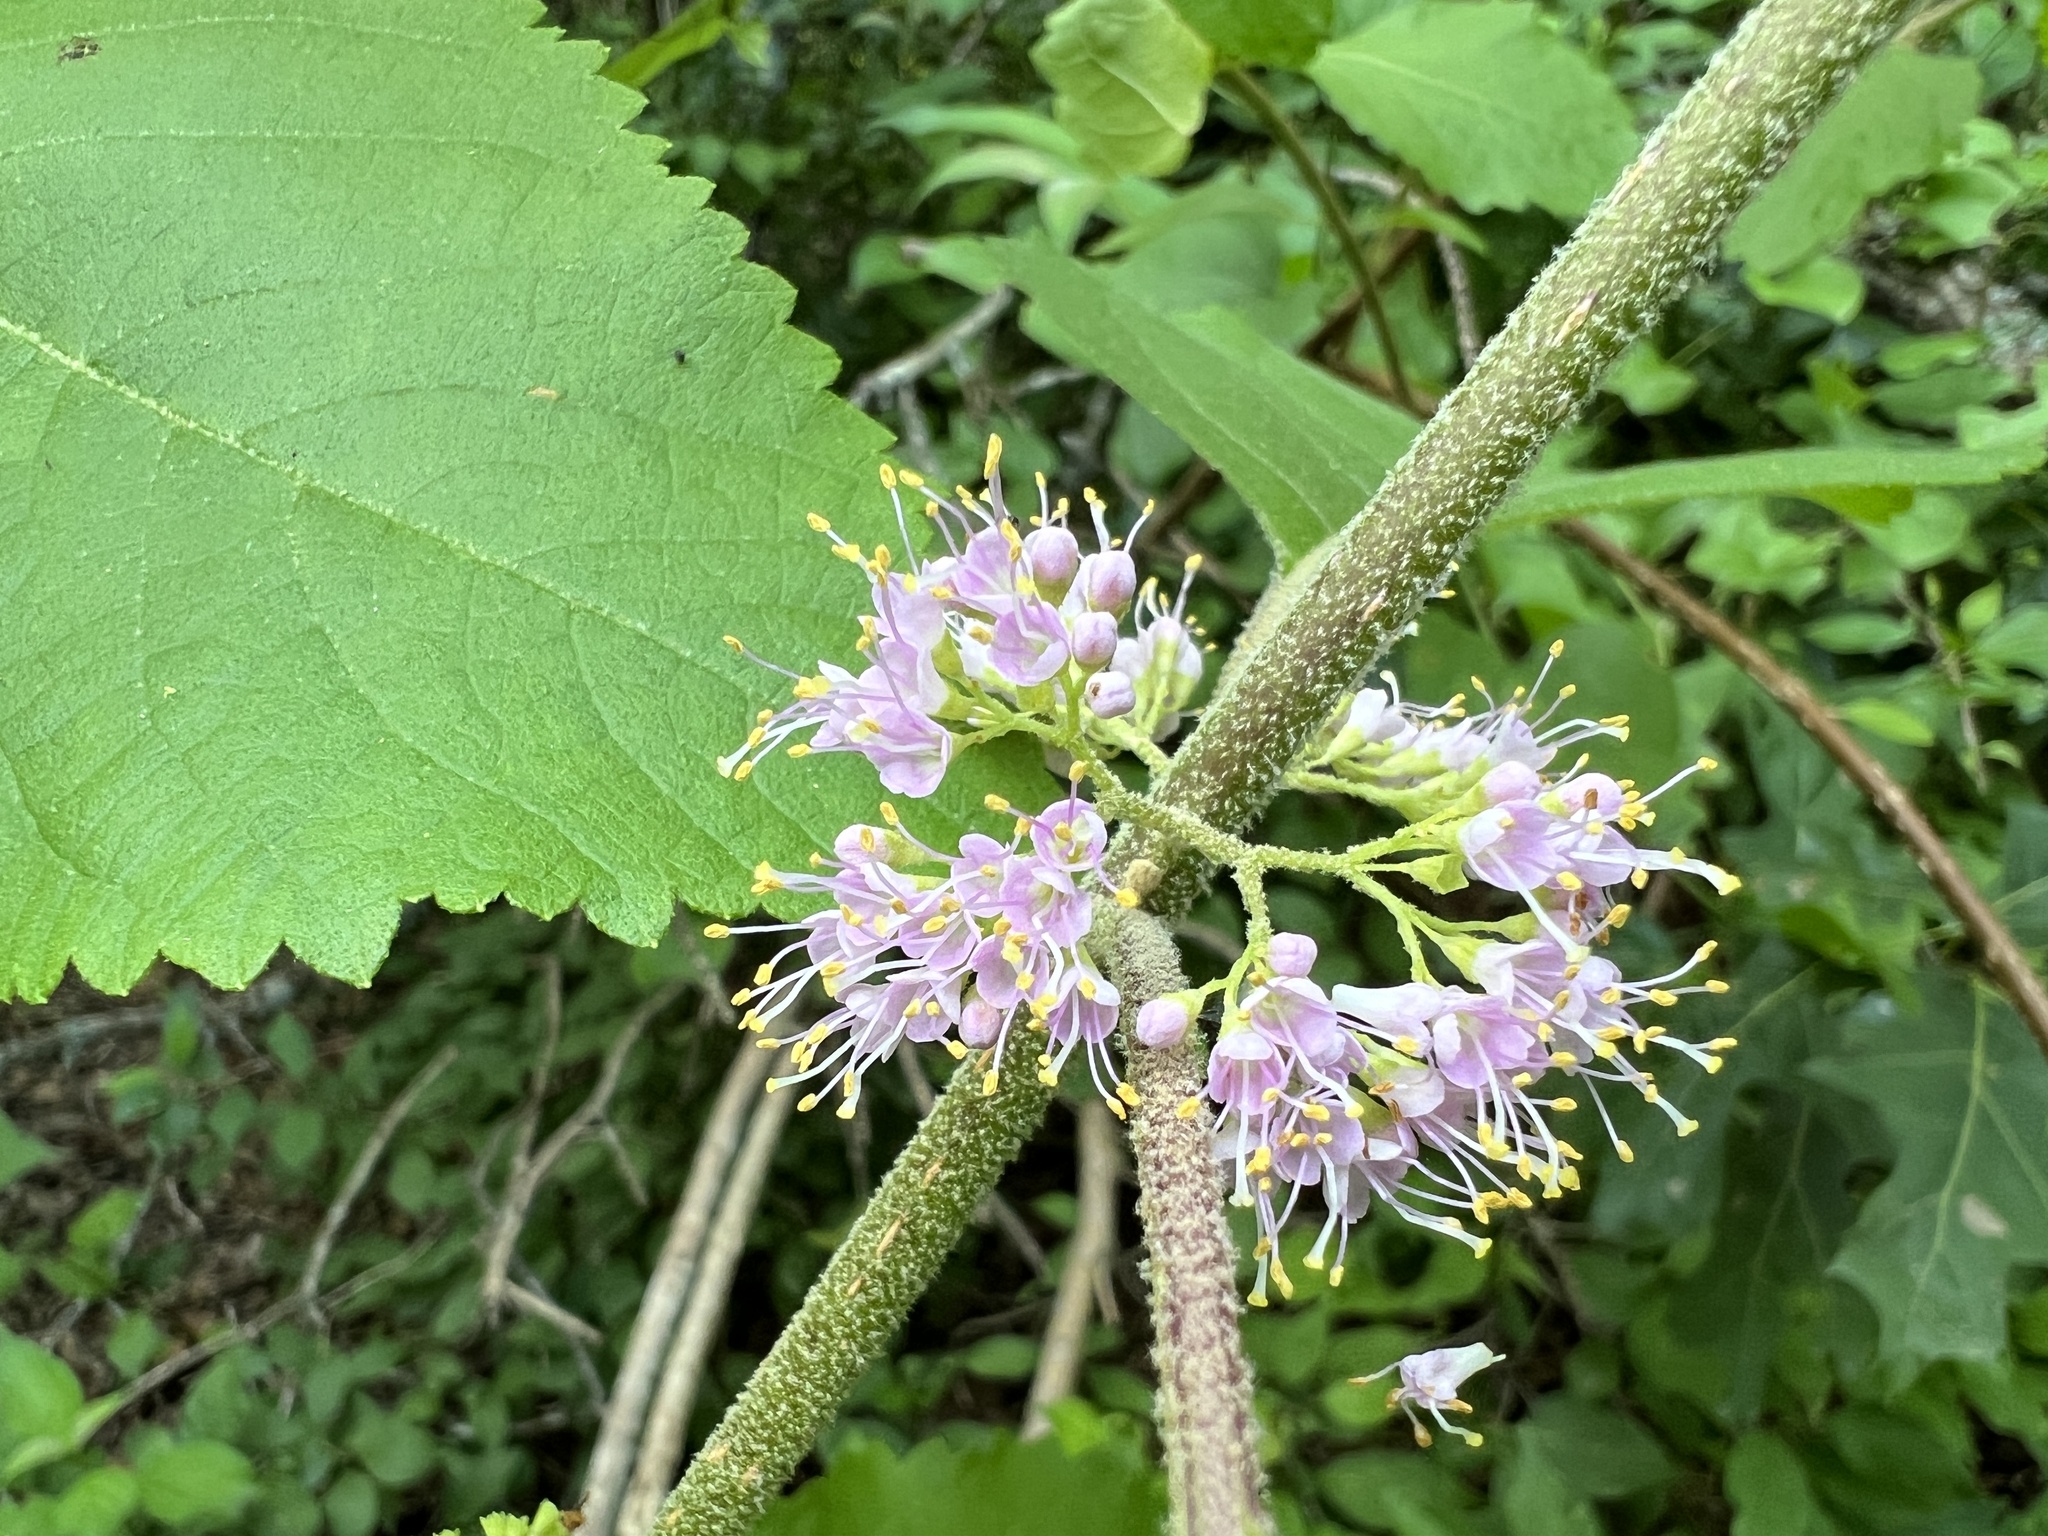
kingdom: Plantae
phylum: Tracheophyta
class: Magnoliopsida
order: Lamiales
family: Lamiaceae
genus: Callicarpa
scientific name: Callicarpa americana
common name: American beautyberry
